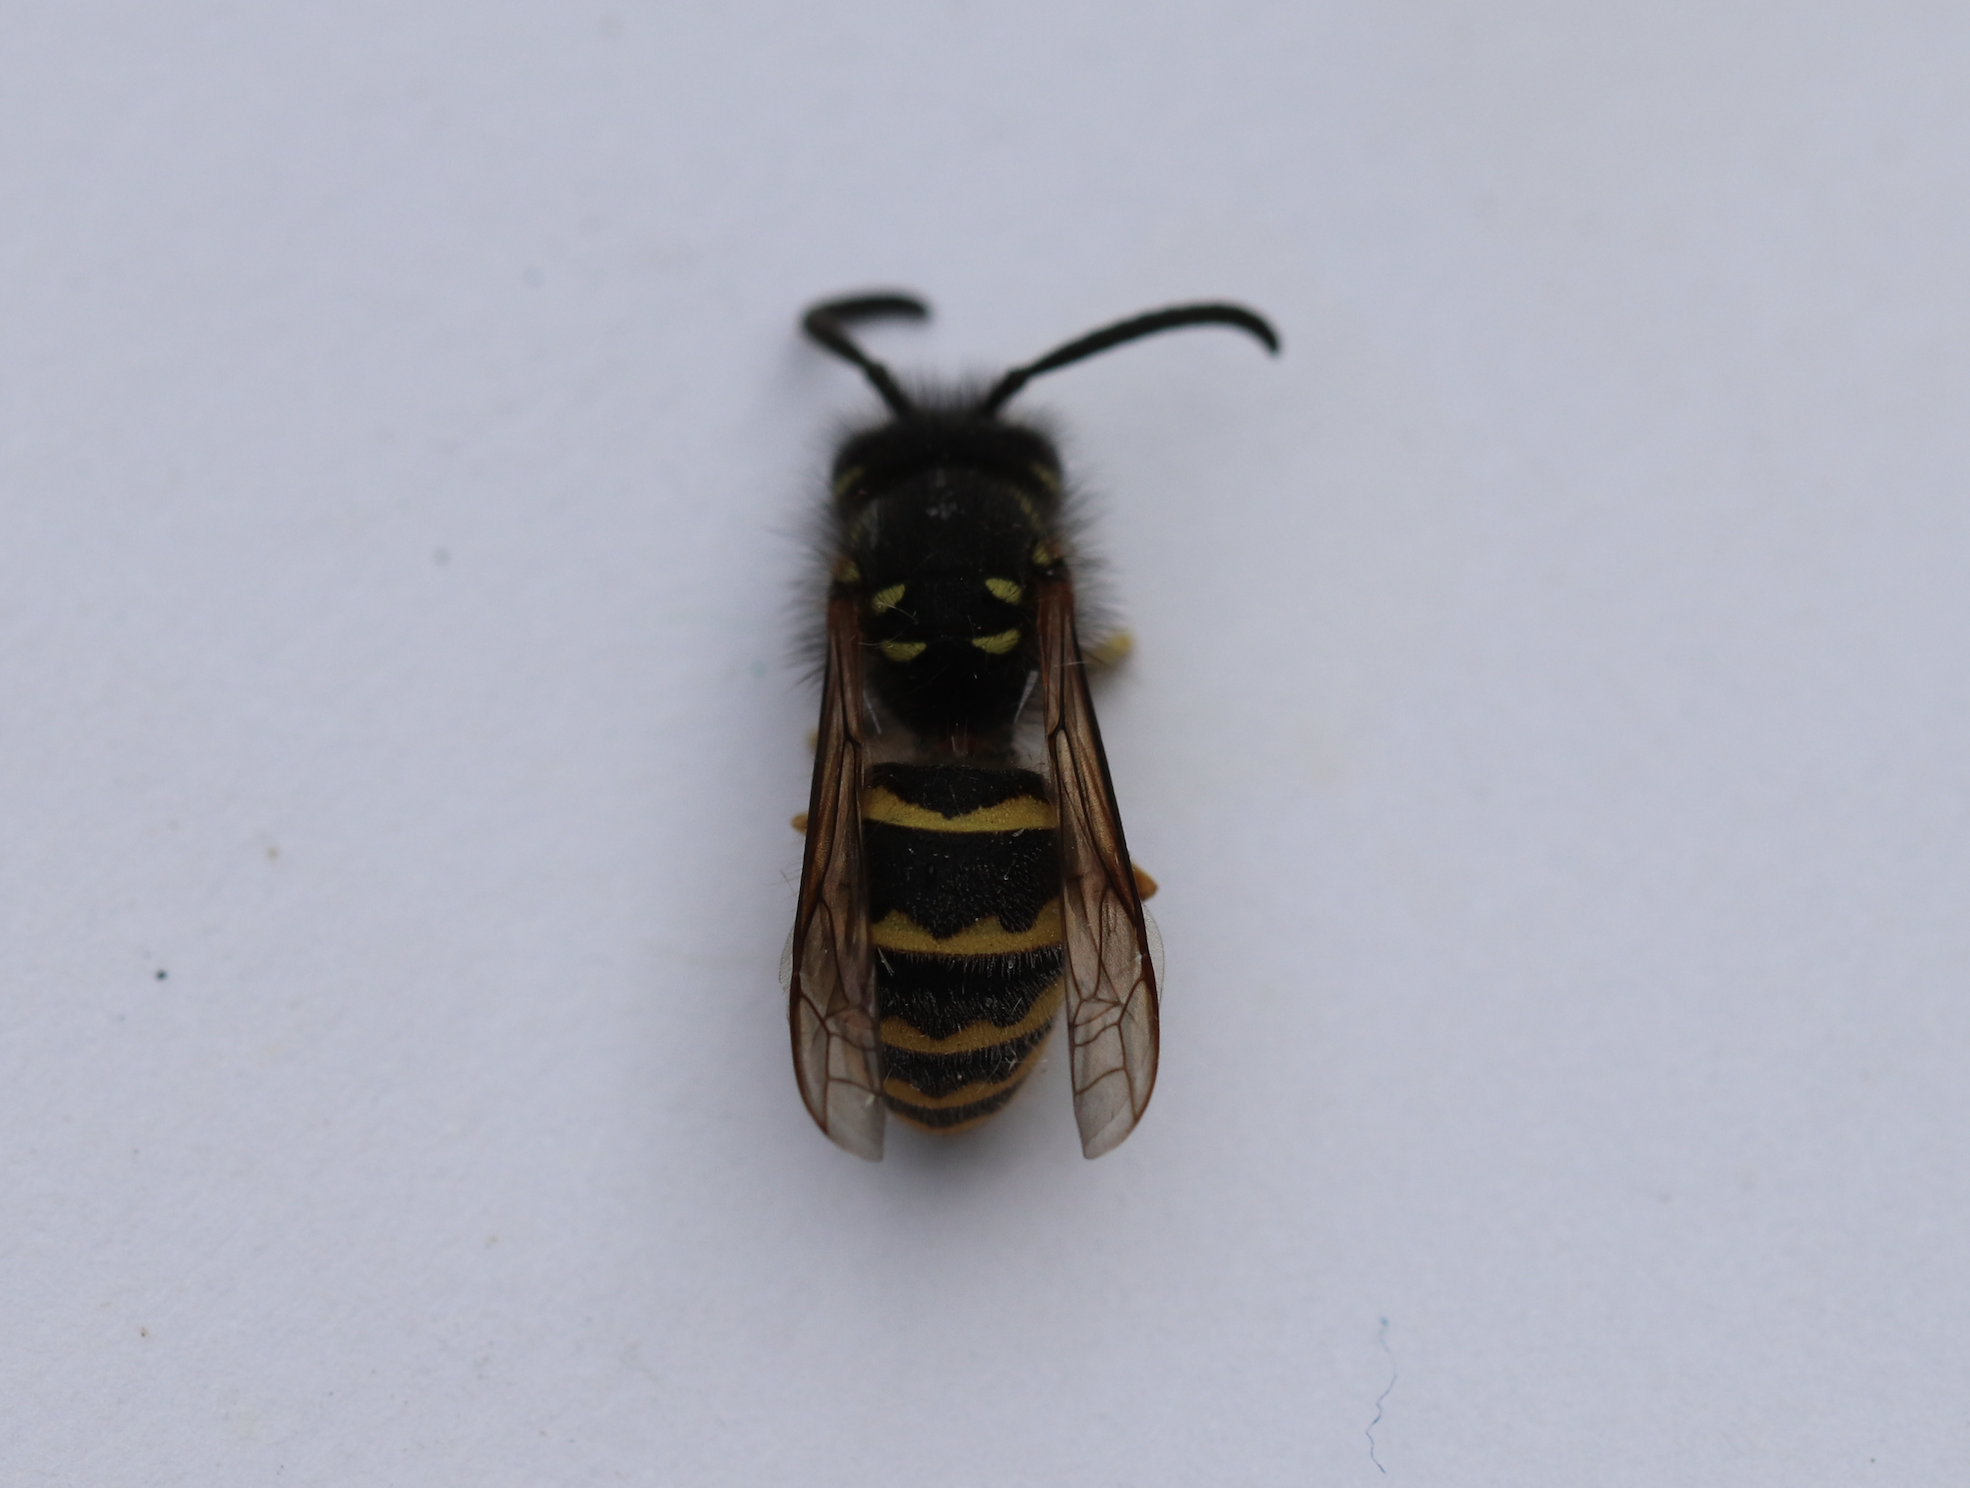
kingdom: Animalia
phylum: Arthropoda
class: Insecta
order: Hymenoptera
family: Vespidae
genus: Vespula
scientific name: Vespula alascensis
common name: Alaska yellowjacket
